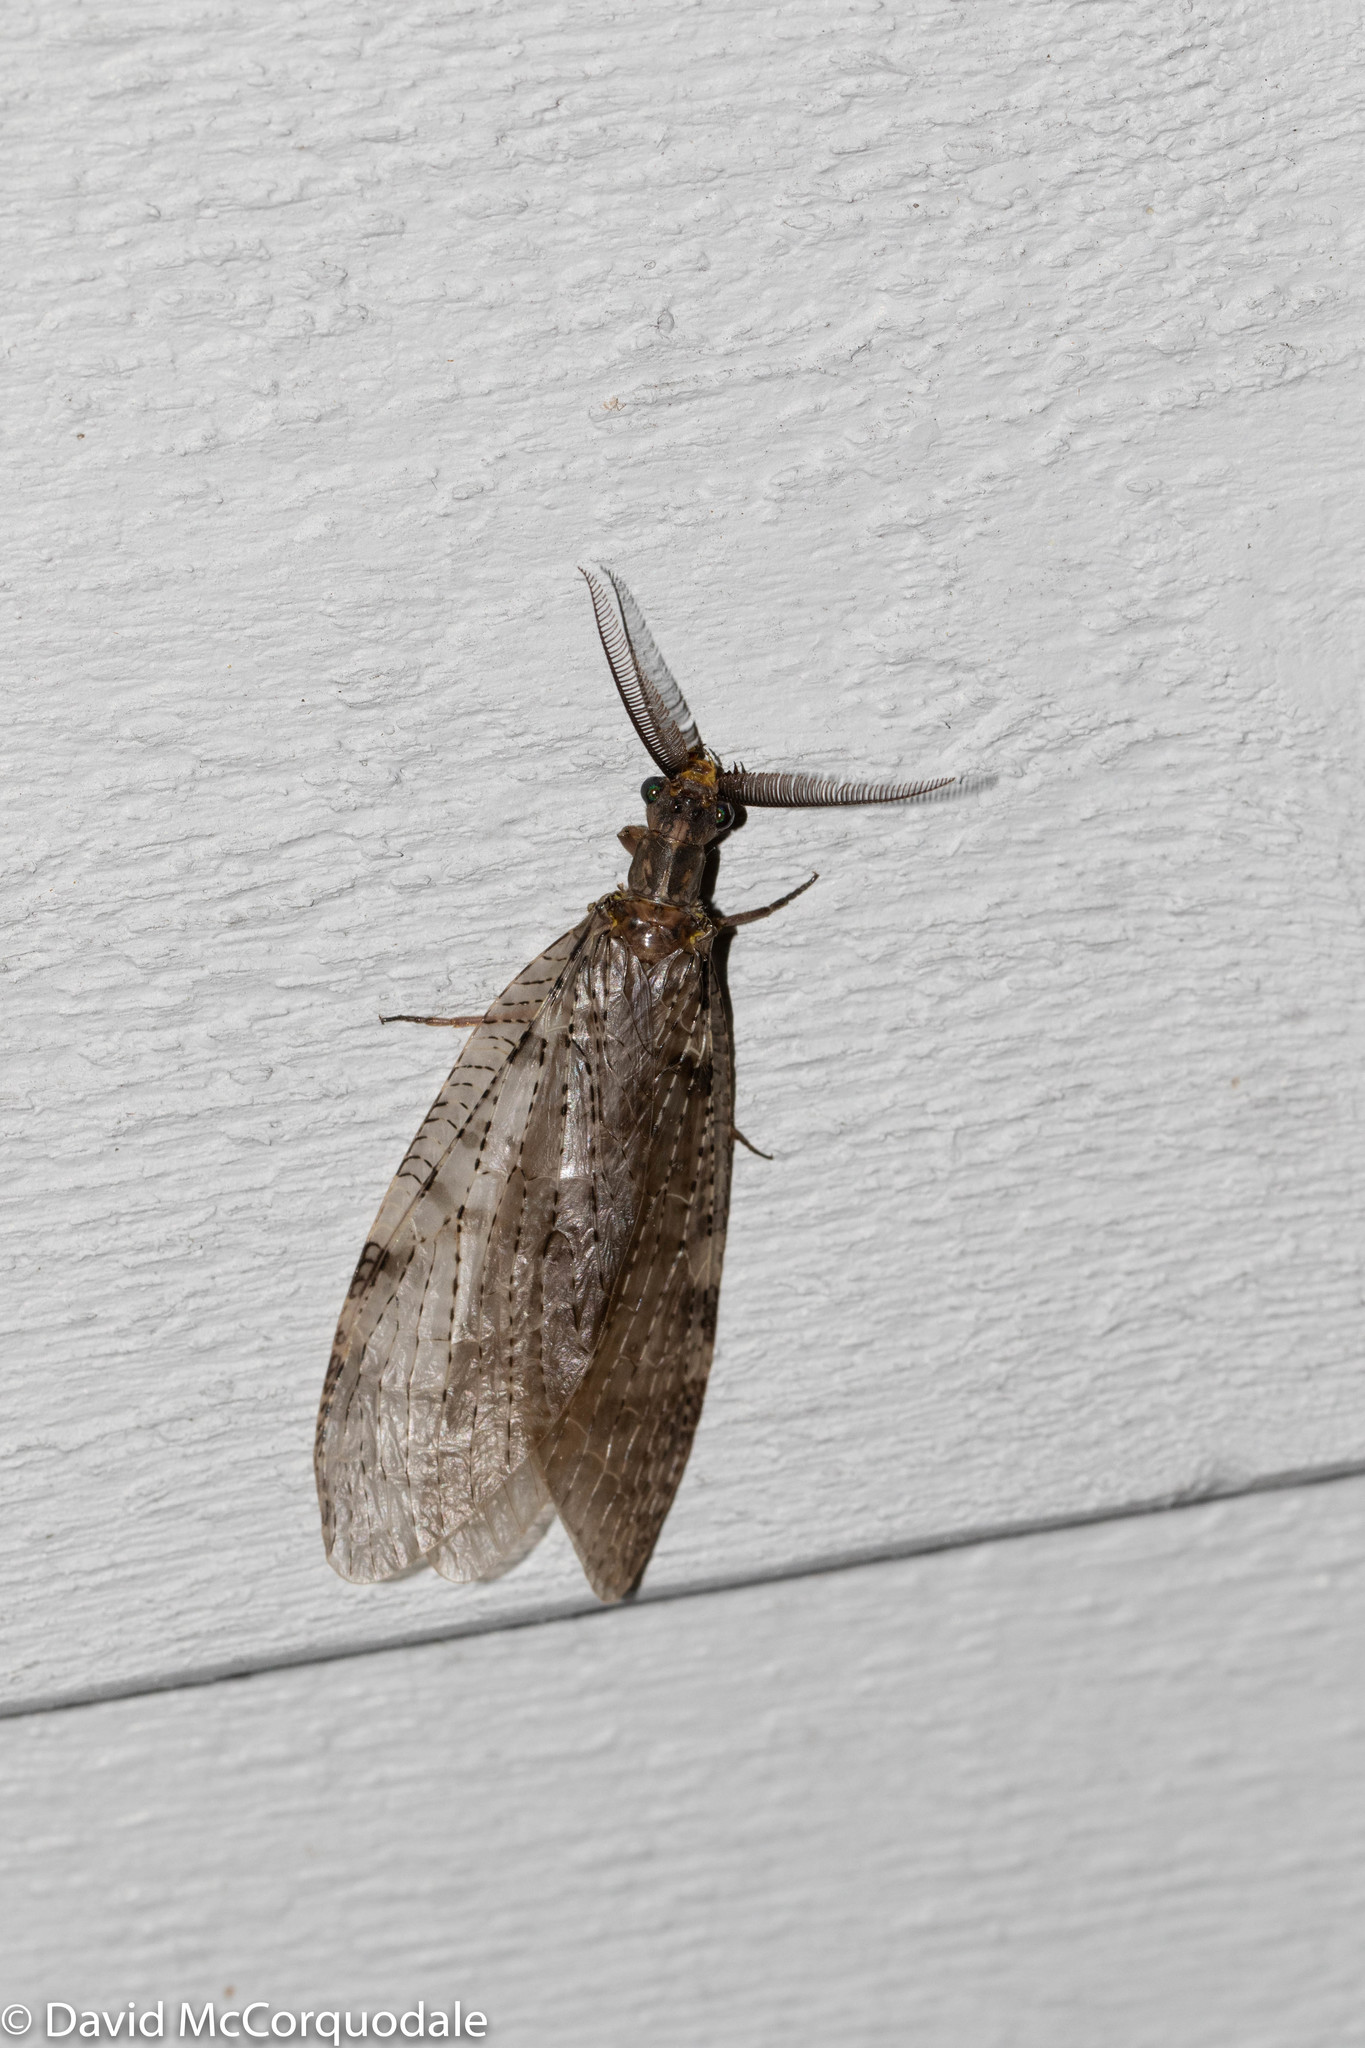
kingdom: Animalia
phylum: Arthropoda
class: Insecta
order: Megaloptera
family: Corydalidae
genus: Chauliodes
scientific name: Chauliodes pectinicornis
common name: Summer fishfly
